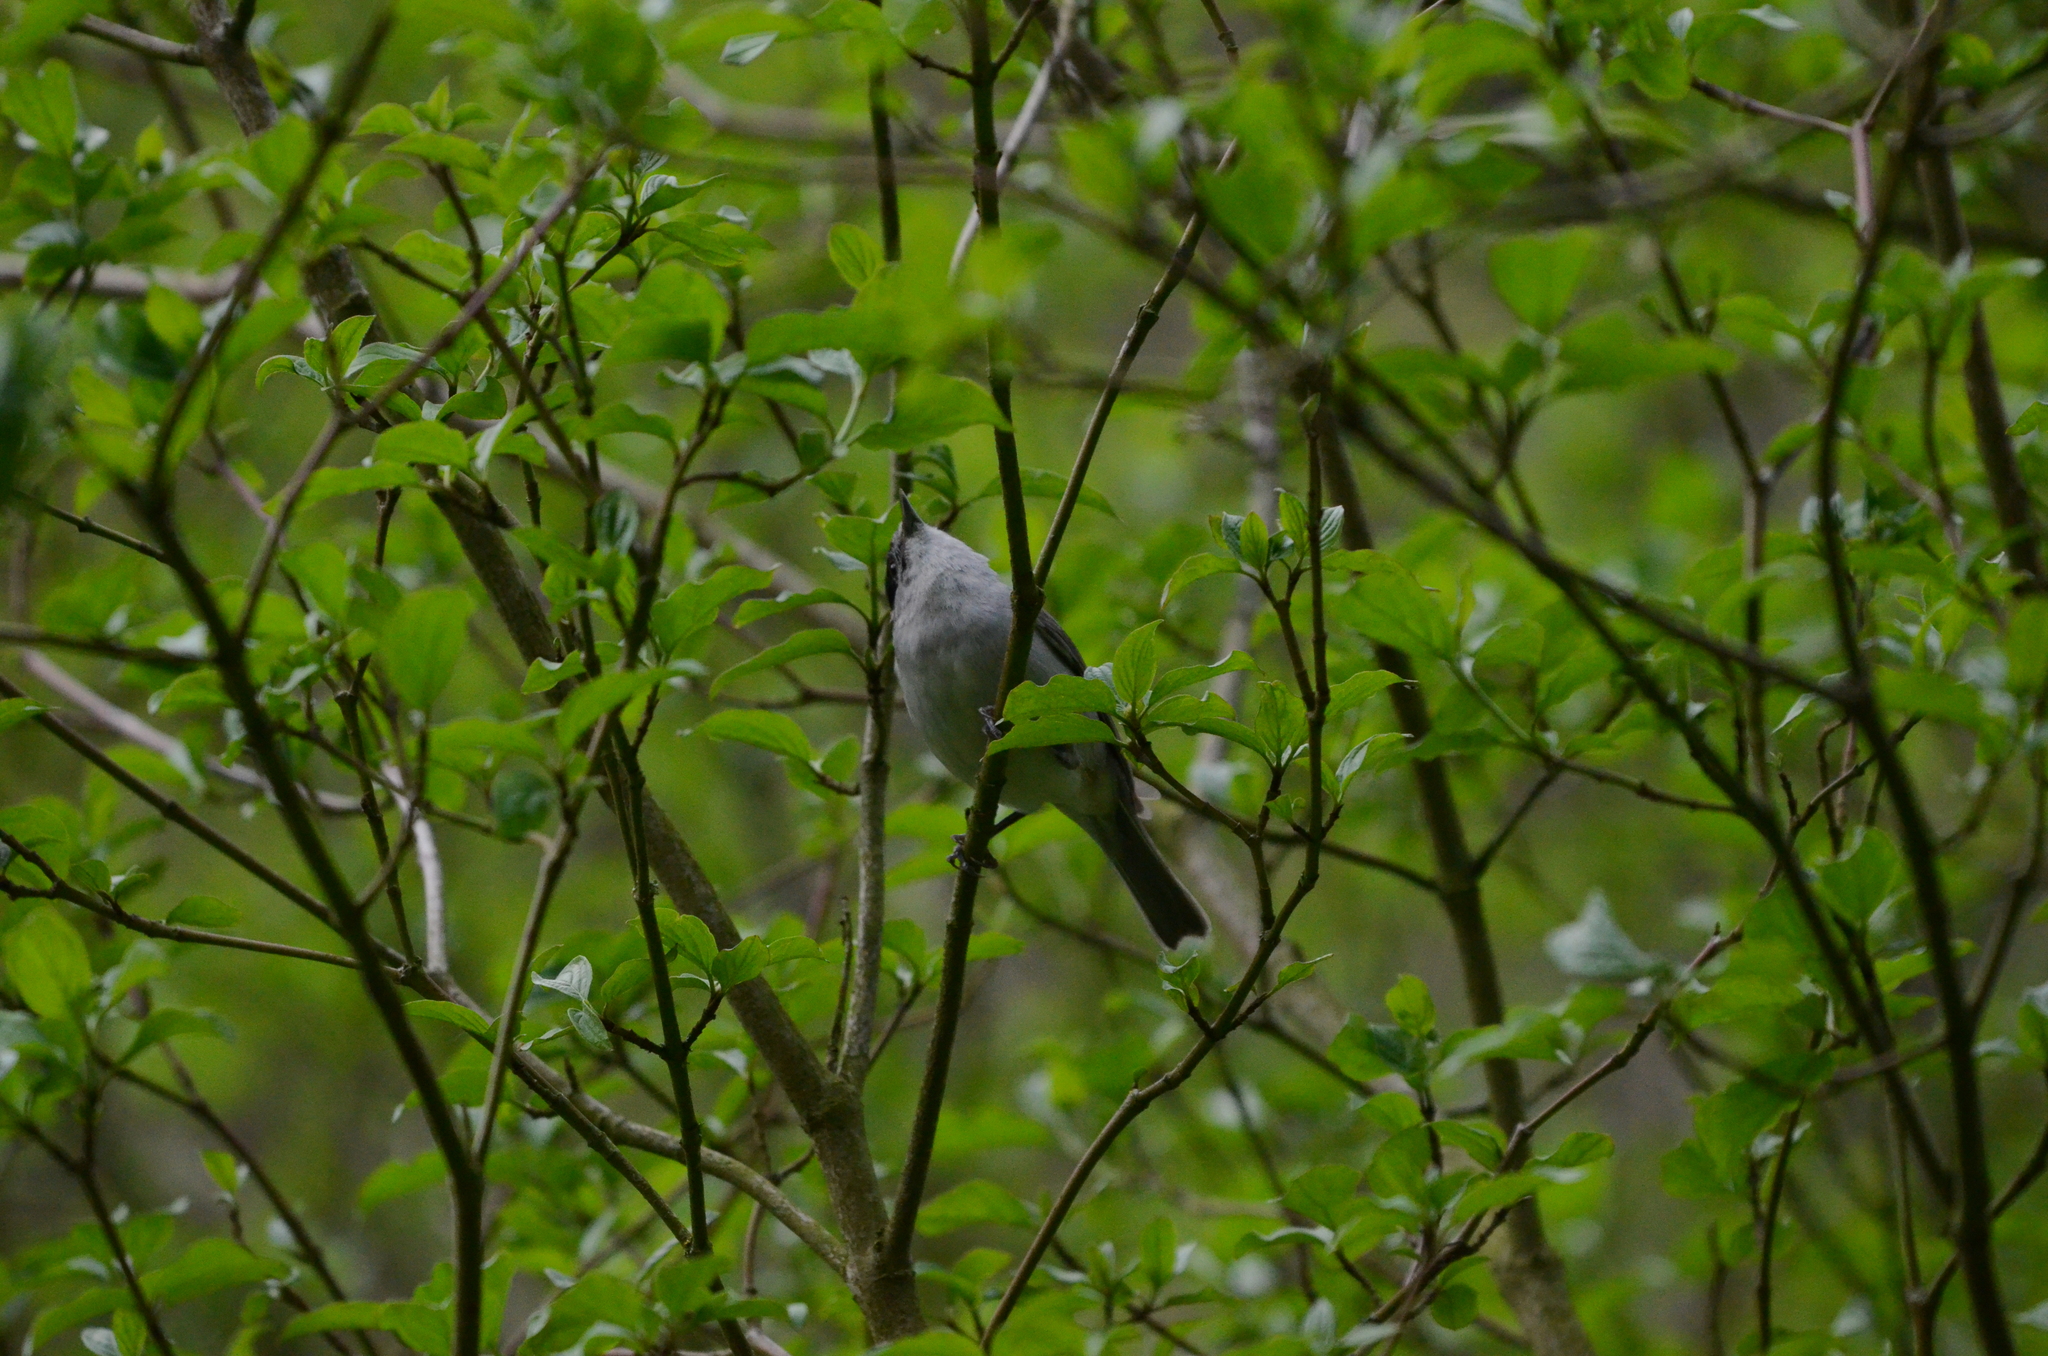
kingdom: Animalia
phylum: Chordata
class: Aves
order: Passeriformes
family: Sylviidae
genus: Sylvia
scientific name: Sylvia atricapilla
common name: Eurasian blackcap
